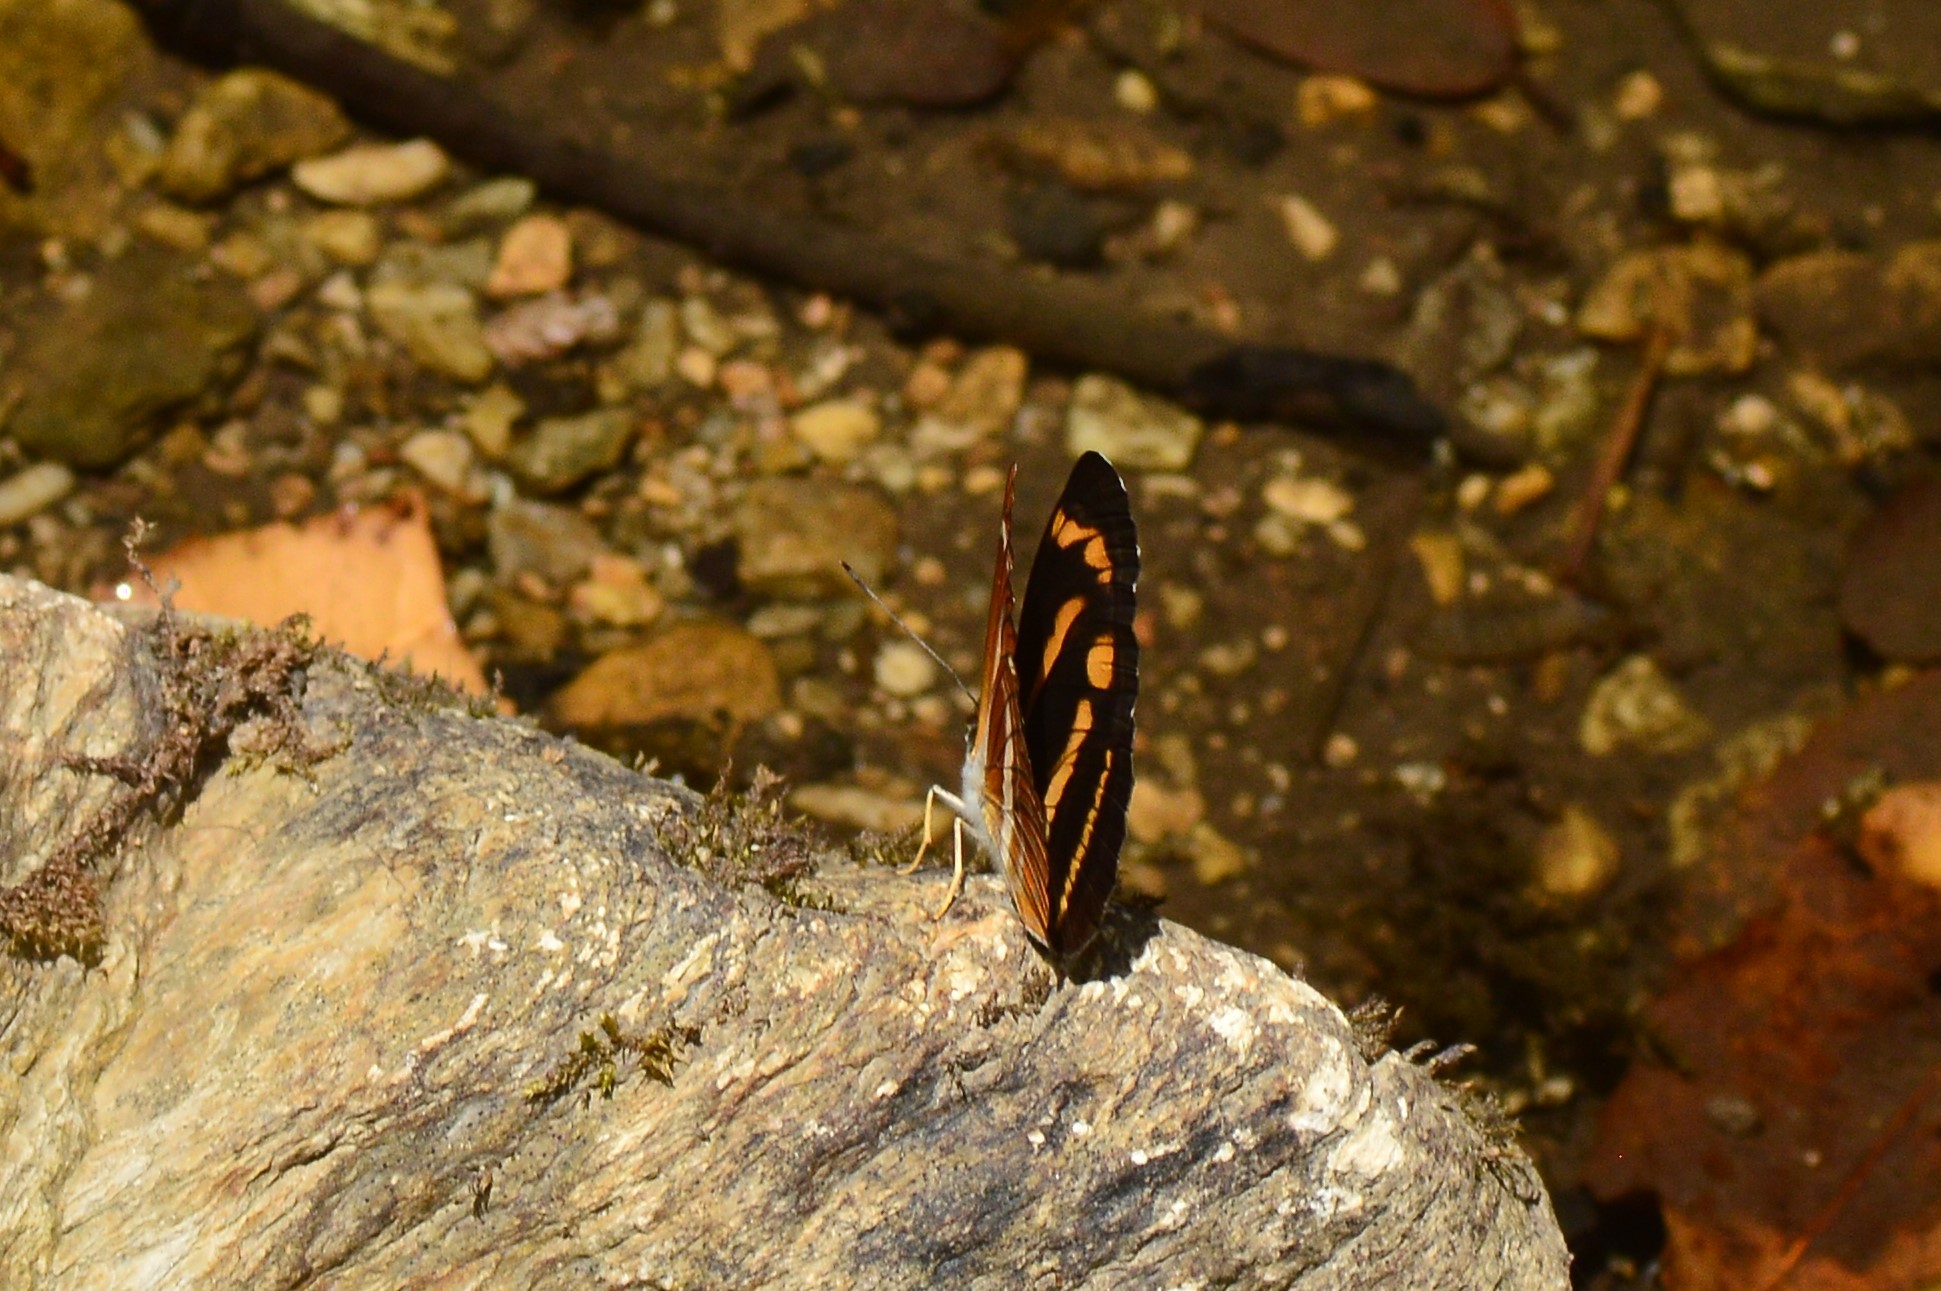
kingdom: Animalia
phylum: Arthropoda
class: Insecta
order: Lepidoptera
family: Nymphalidae
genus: Neptis
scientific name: Neptis ananta
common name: Yellow sailer
